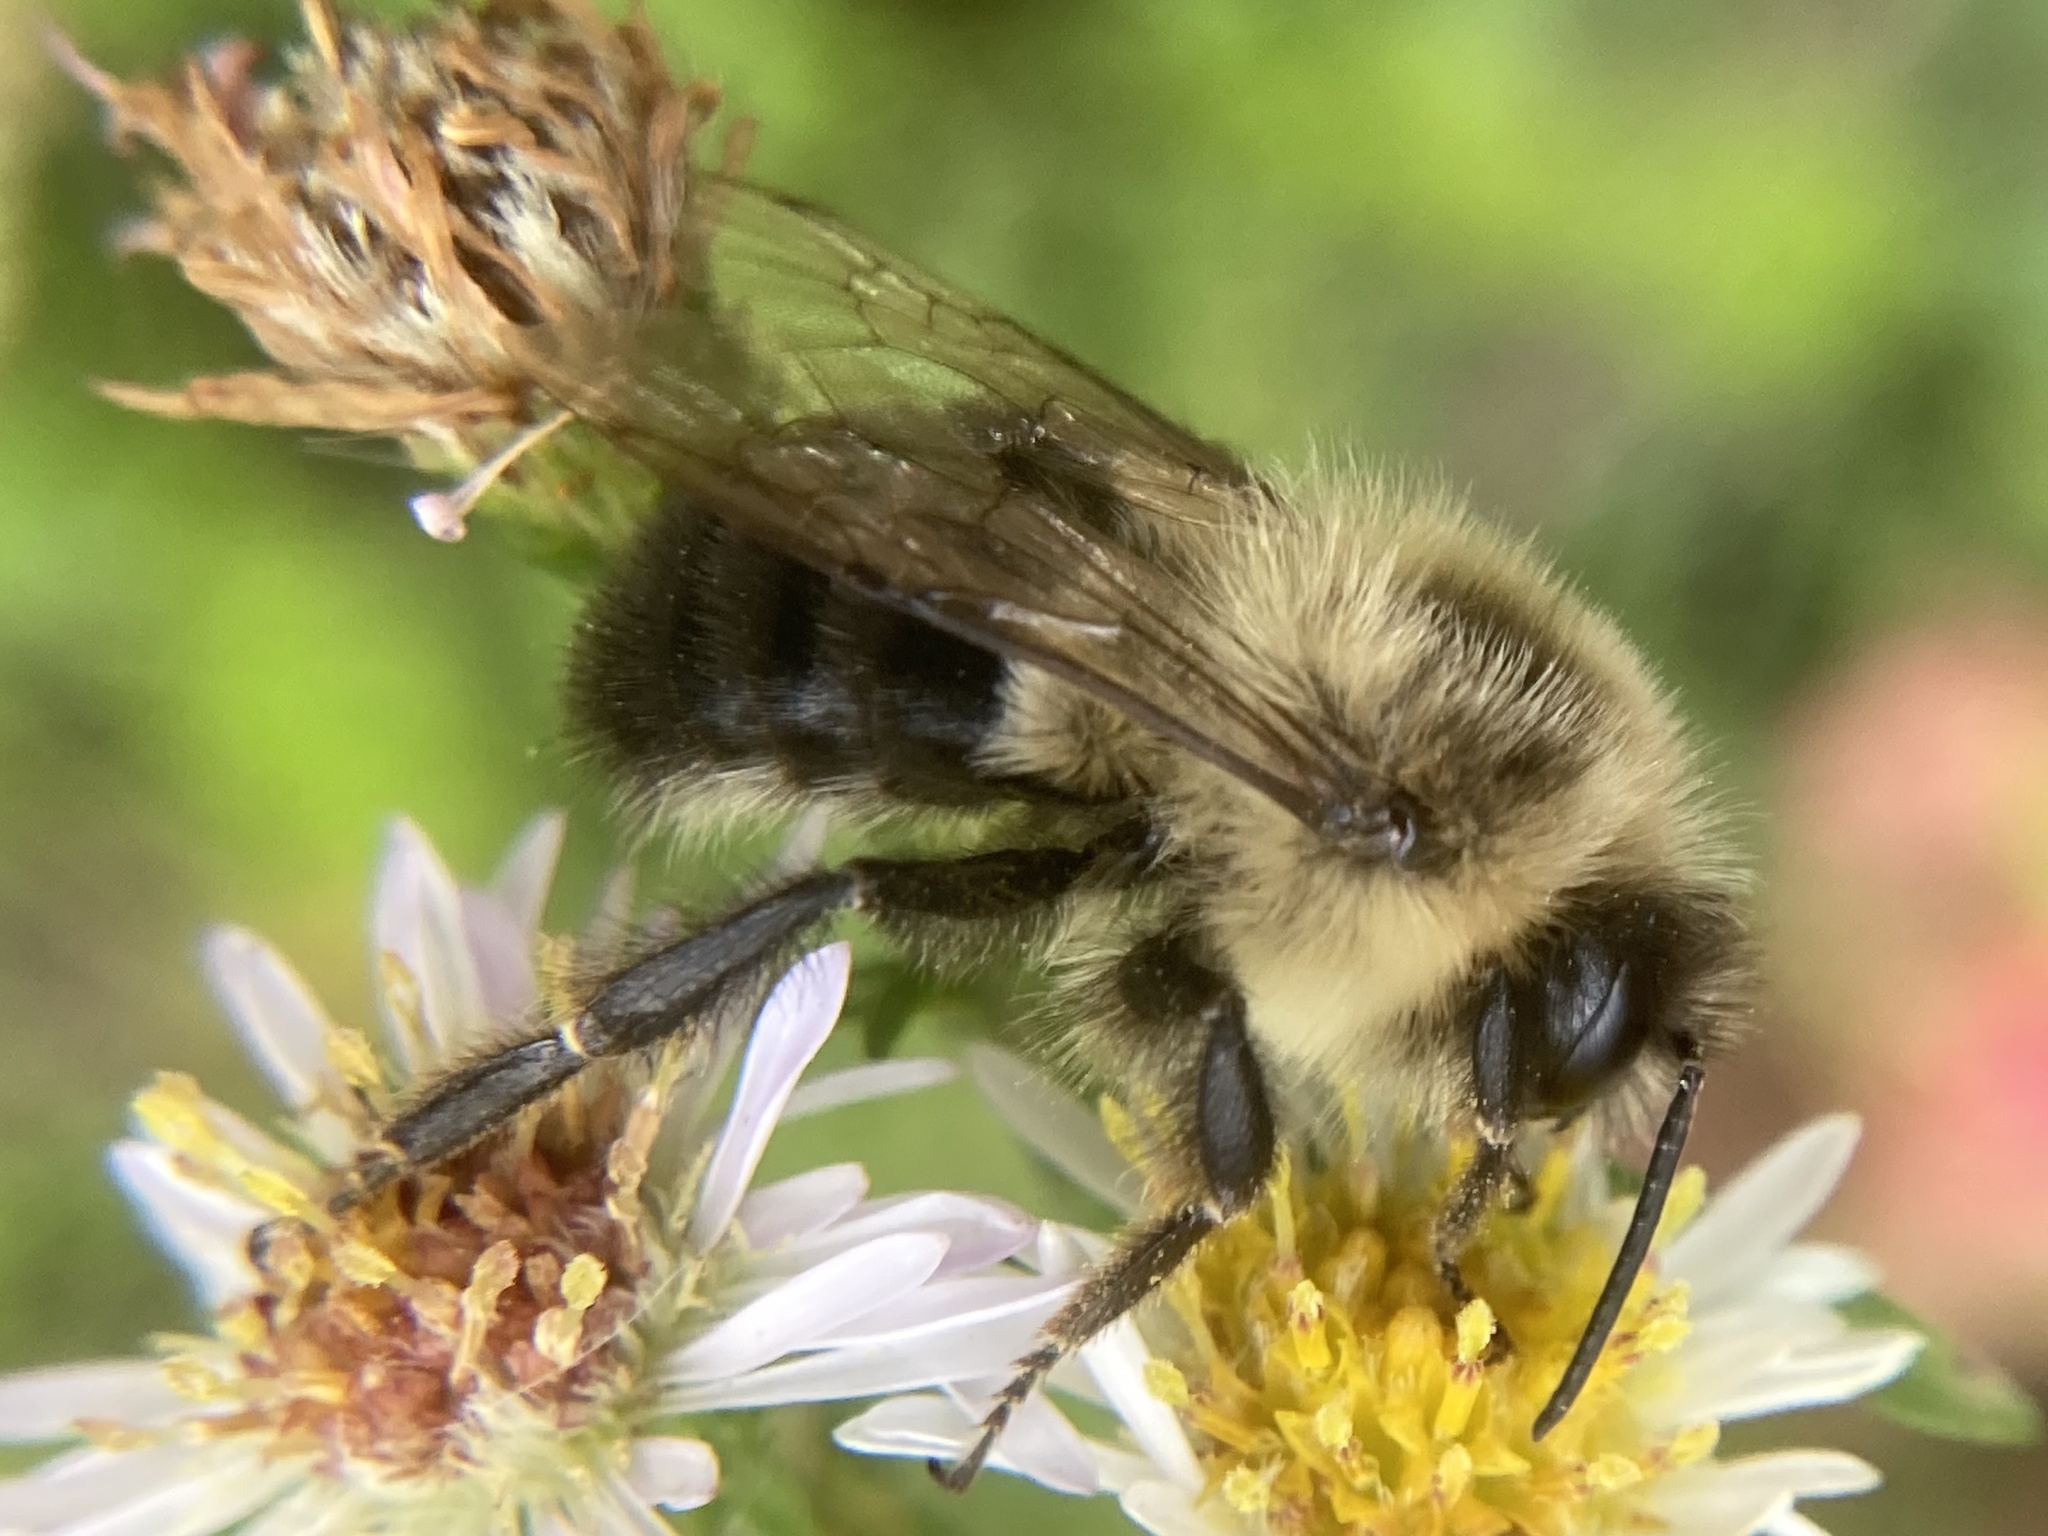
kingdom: Animalia
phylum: Arthropoda
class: Insecta
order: Hymenoptera
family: Apidae
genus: Bombus
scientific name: Bombus impatiens
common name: Common eastern bumble bee
